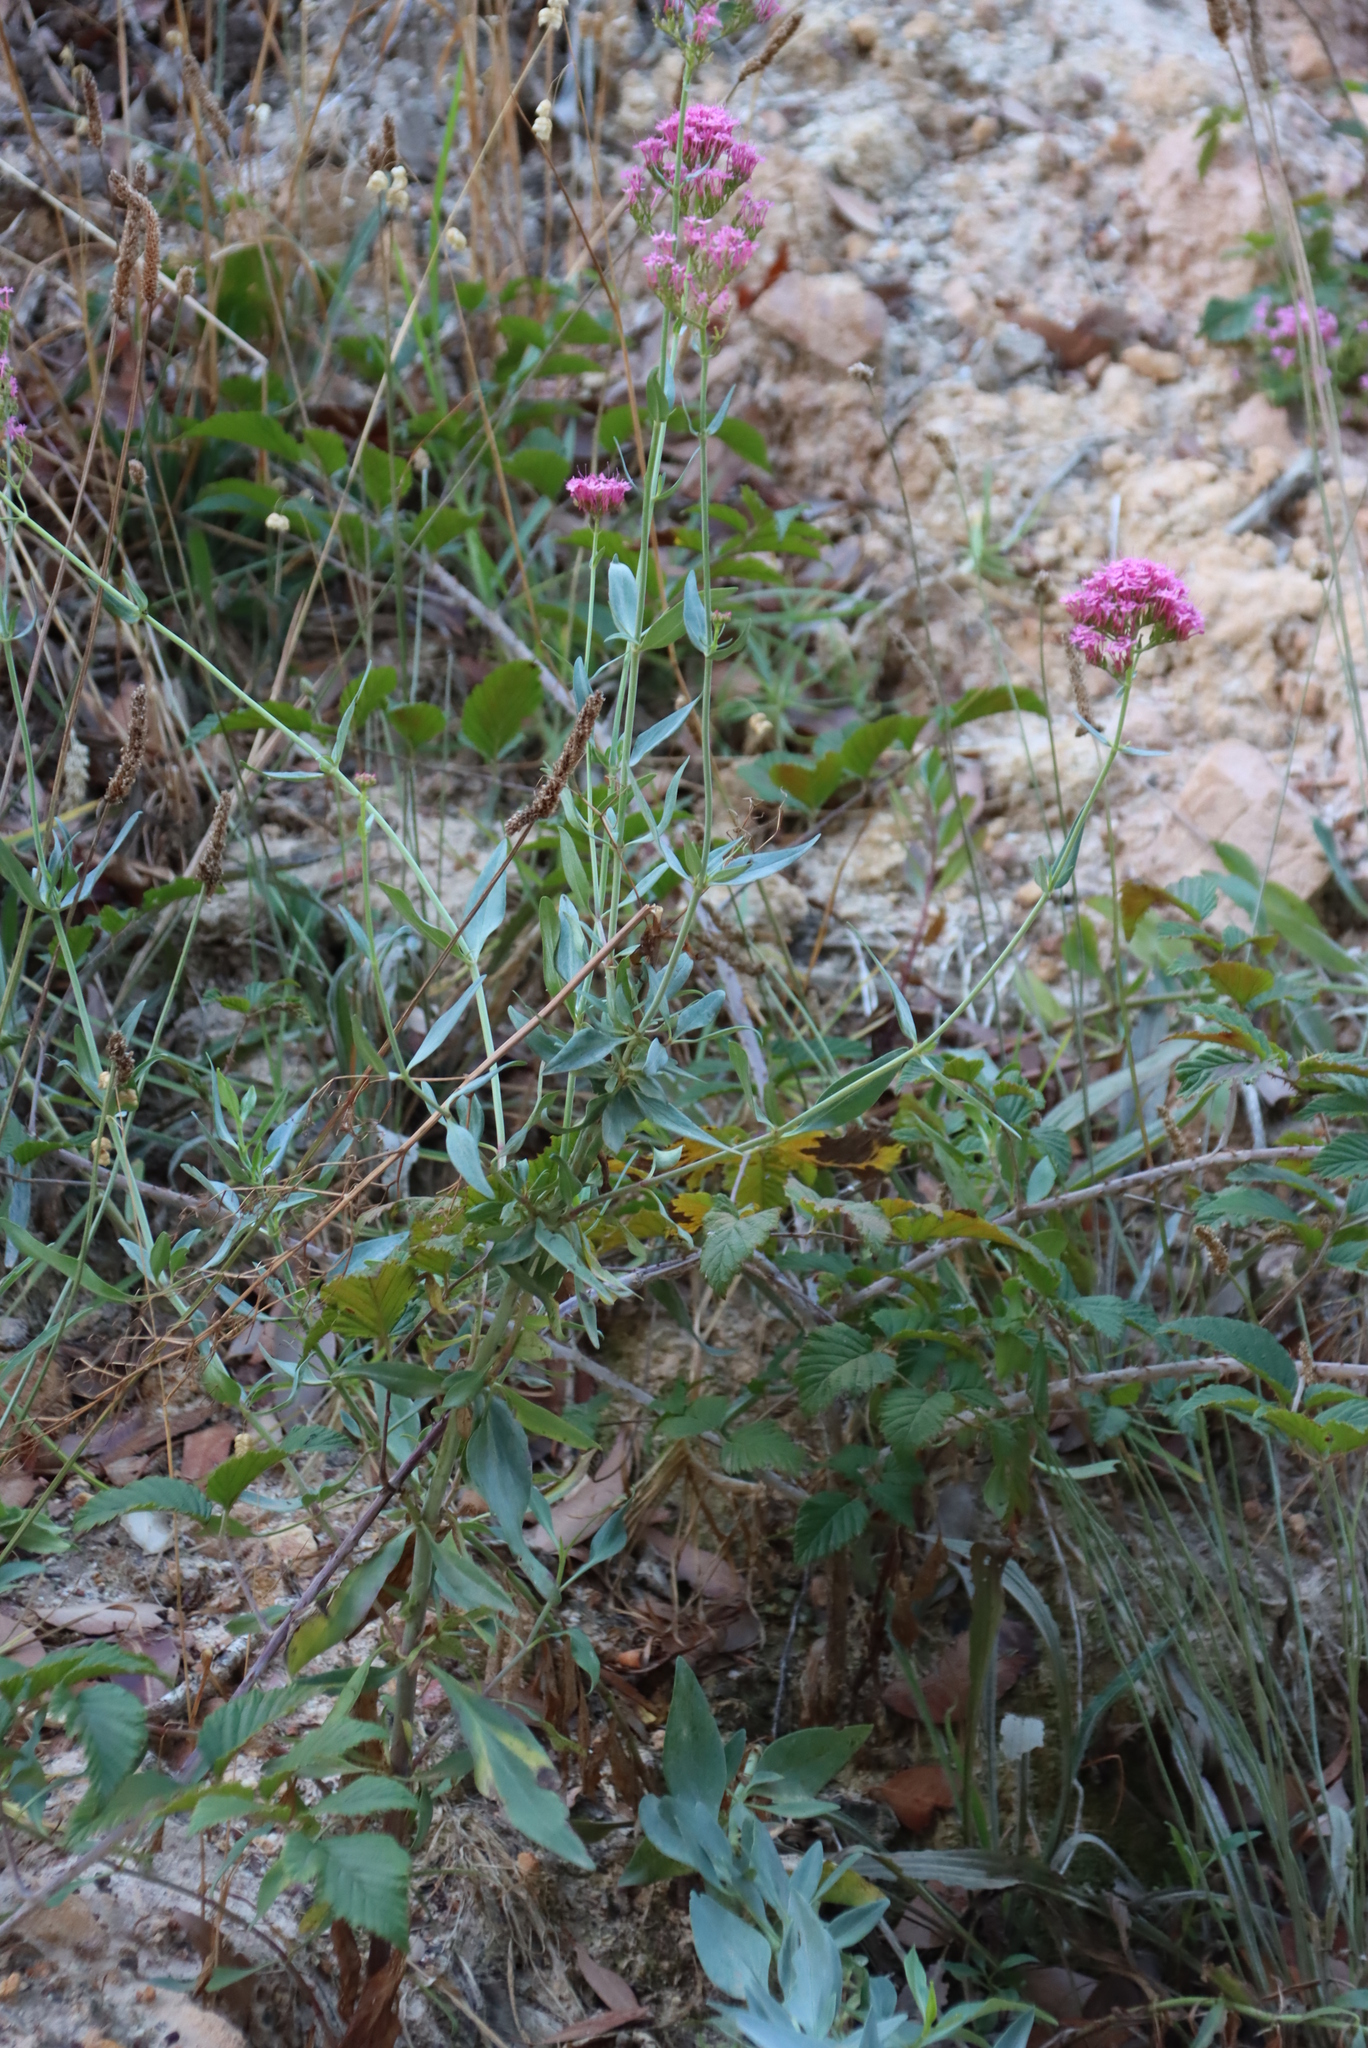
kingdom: Plantae
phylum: Tracheophyta
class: Magnoliopsida
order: Dipsacales
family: Caprifoliaceae
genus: Centranthus
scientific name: Centranthus ruber
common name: Red valerian
